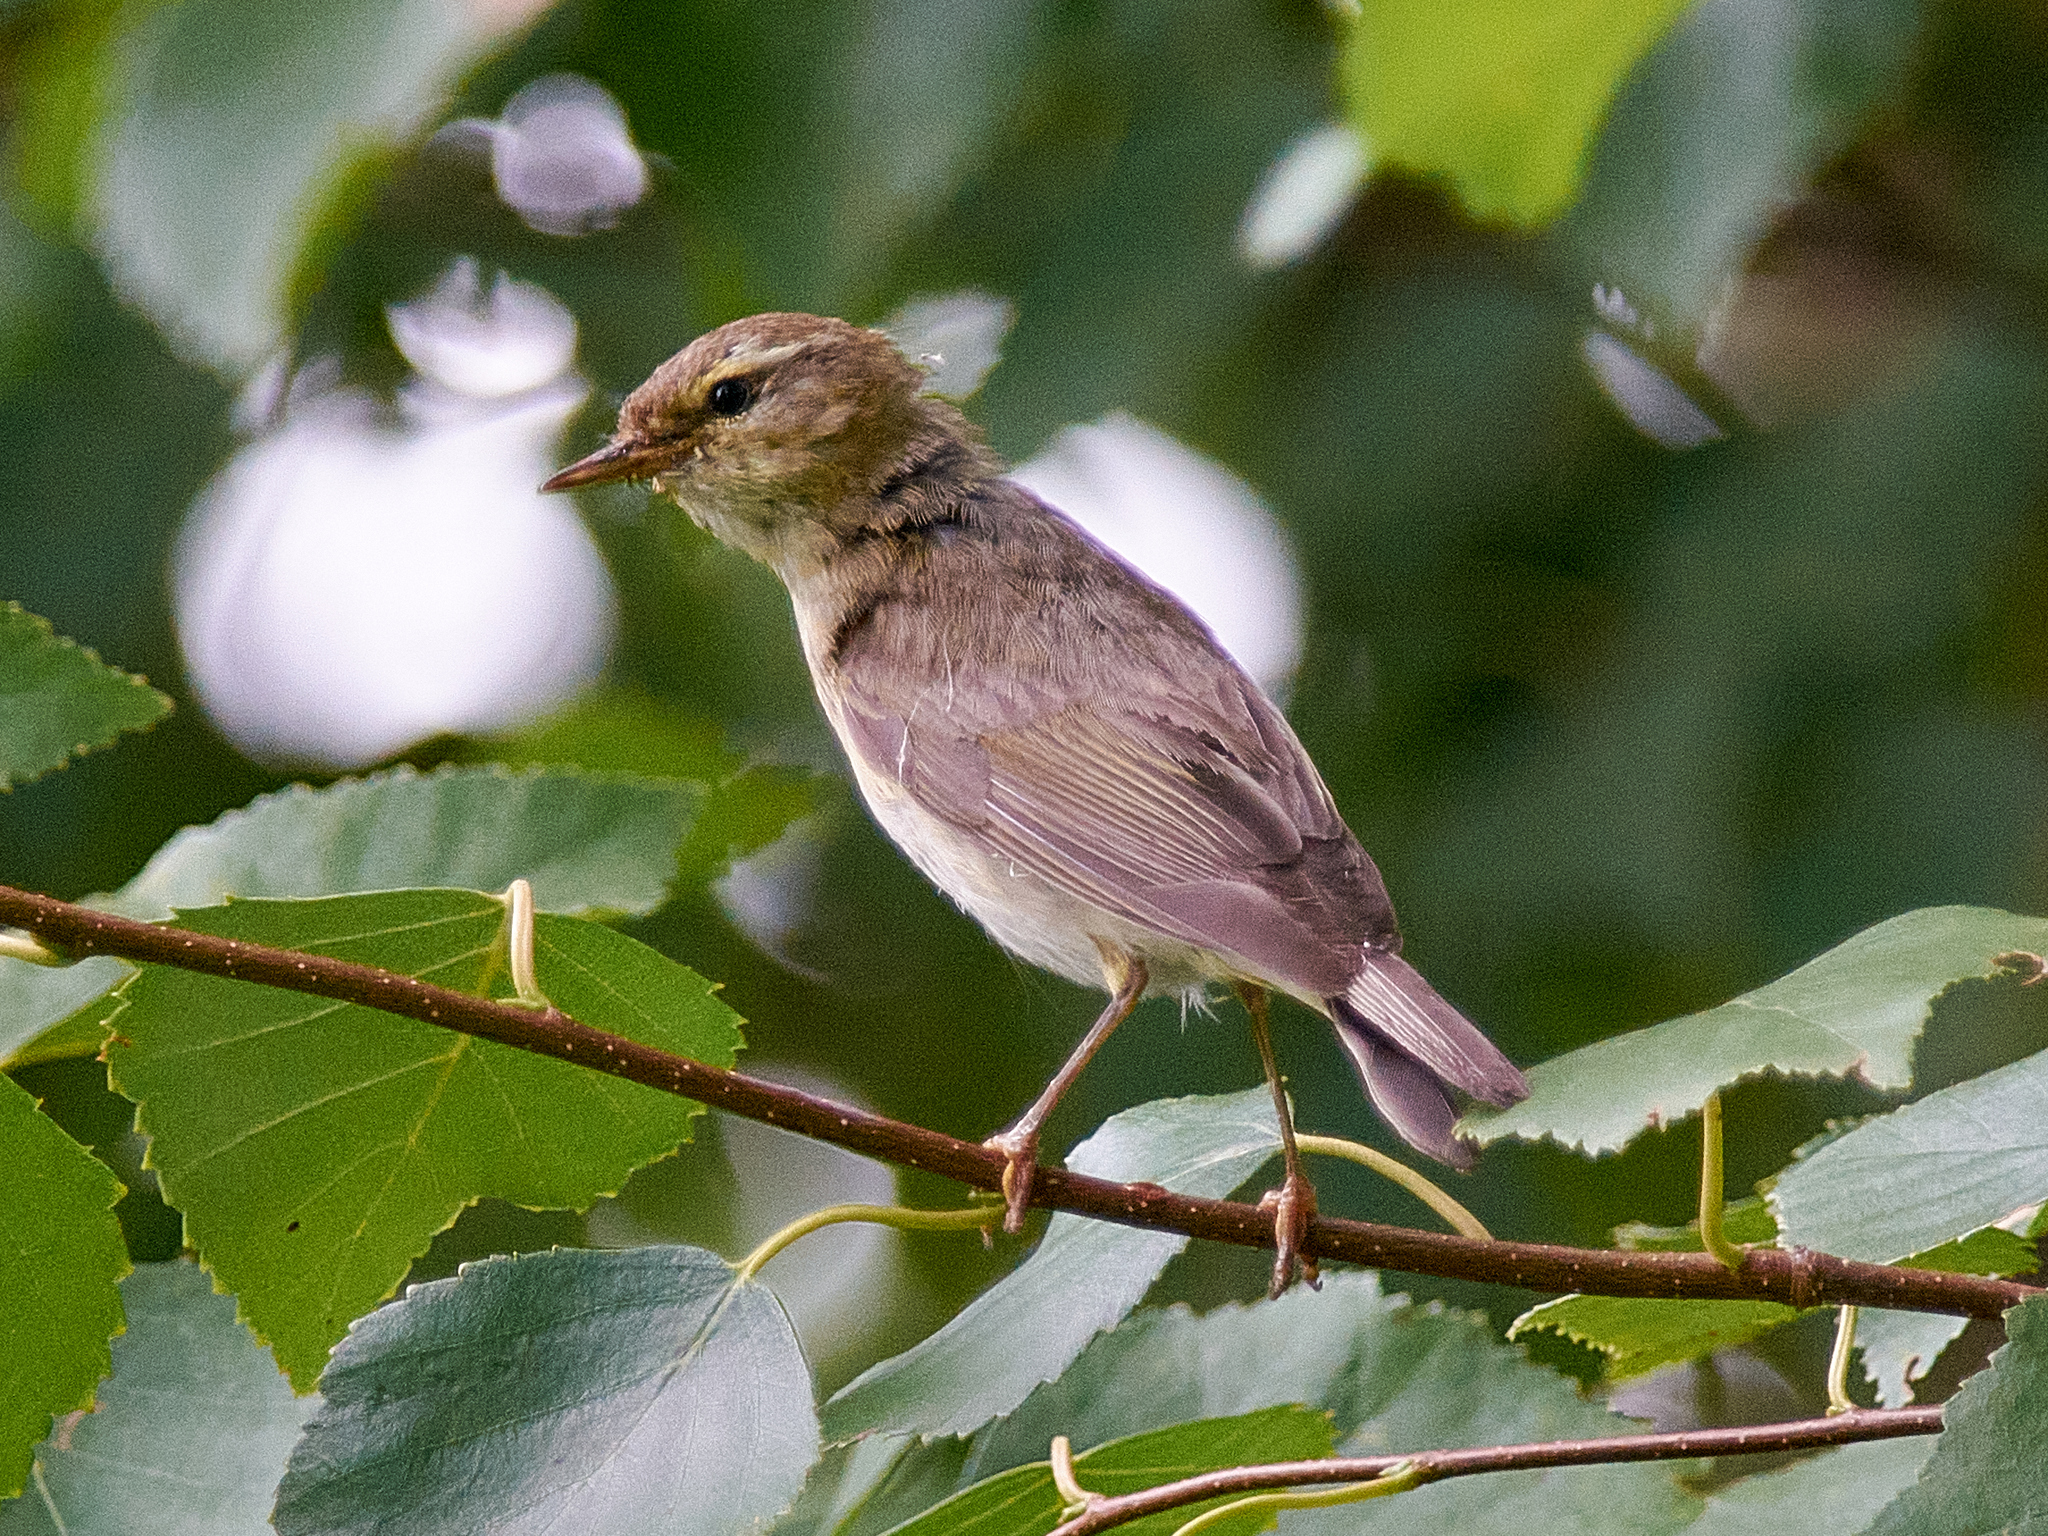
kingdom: Animalia
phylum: Chordata
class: Aves
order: Passeriformes
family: Phylloscopidae
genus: Phylloscopus
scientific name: Phylloscopus trochilus
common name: Willow warbler
